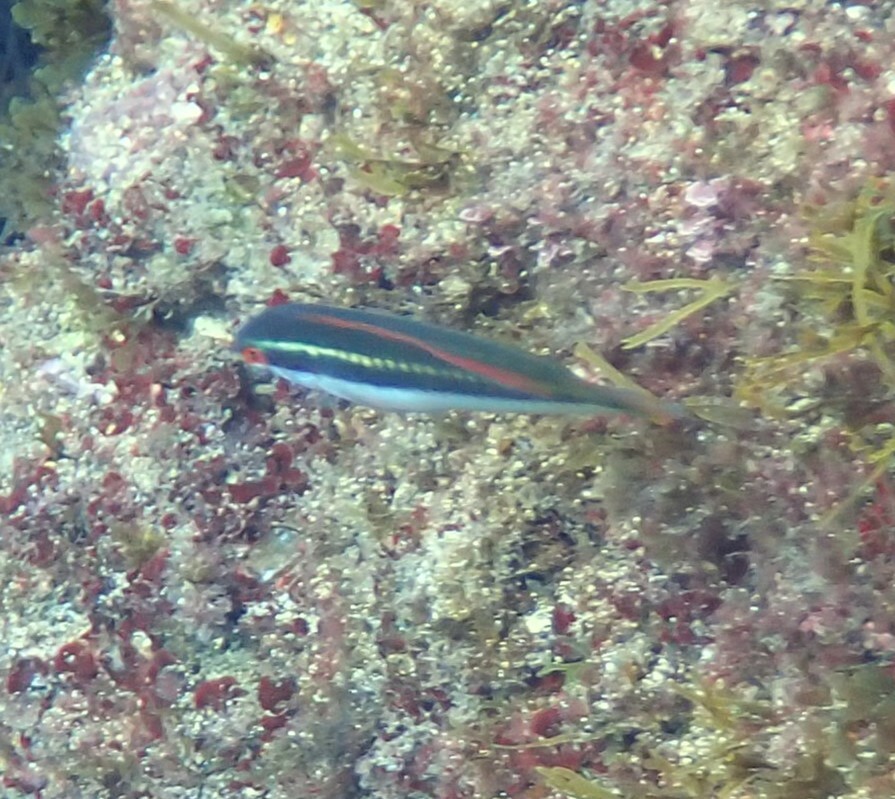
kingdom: Animalia
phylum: Chordata
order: Perciformes
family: Labridae
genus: Coris
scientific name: Coris julis
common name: Rainbow wrasse
